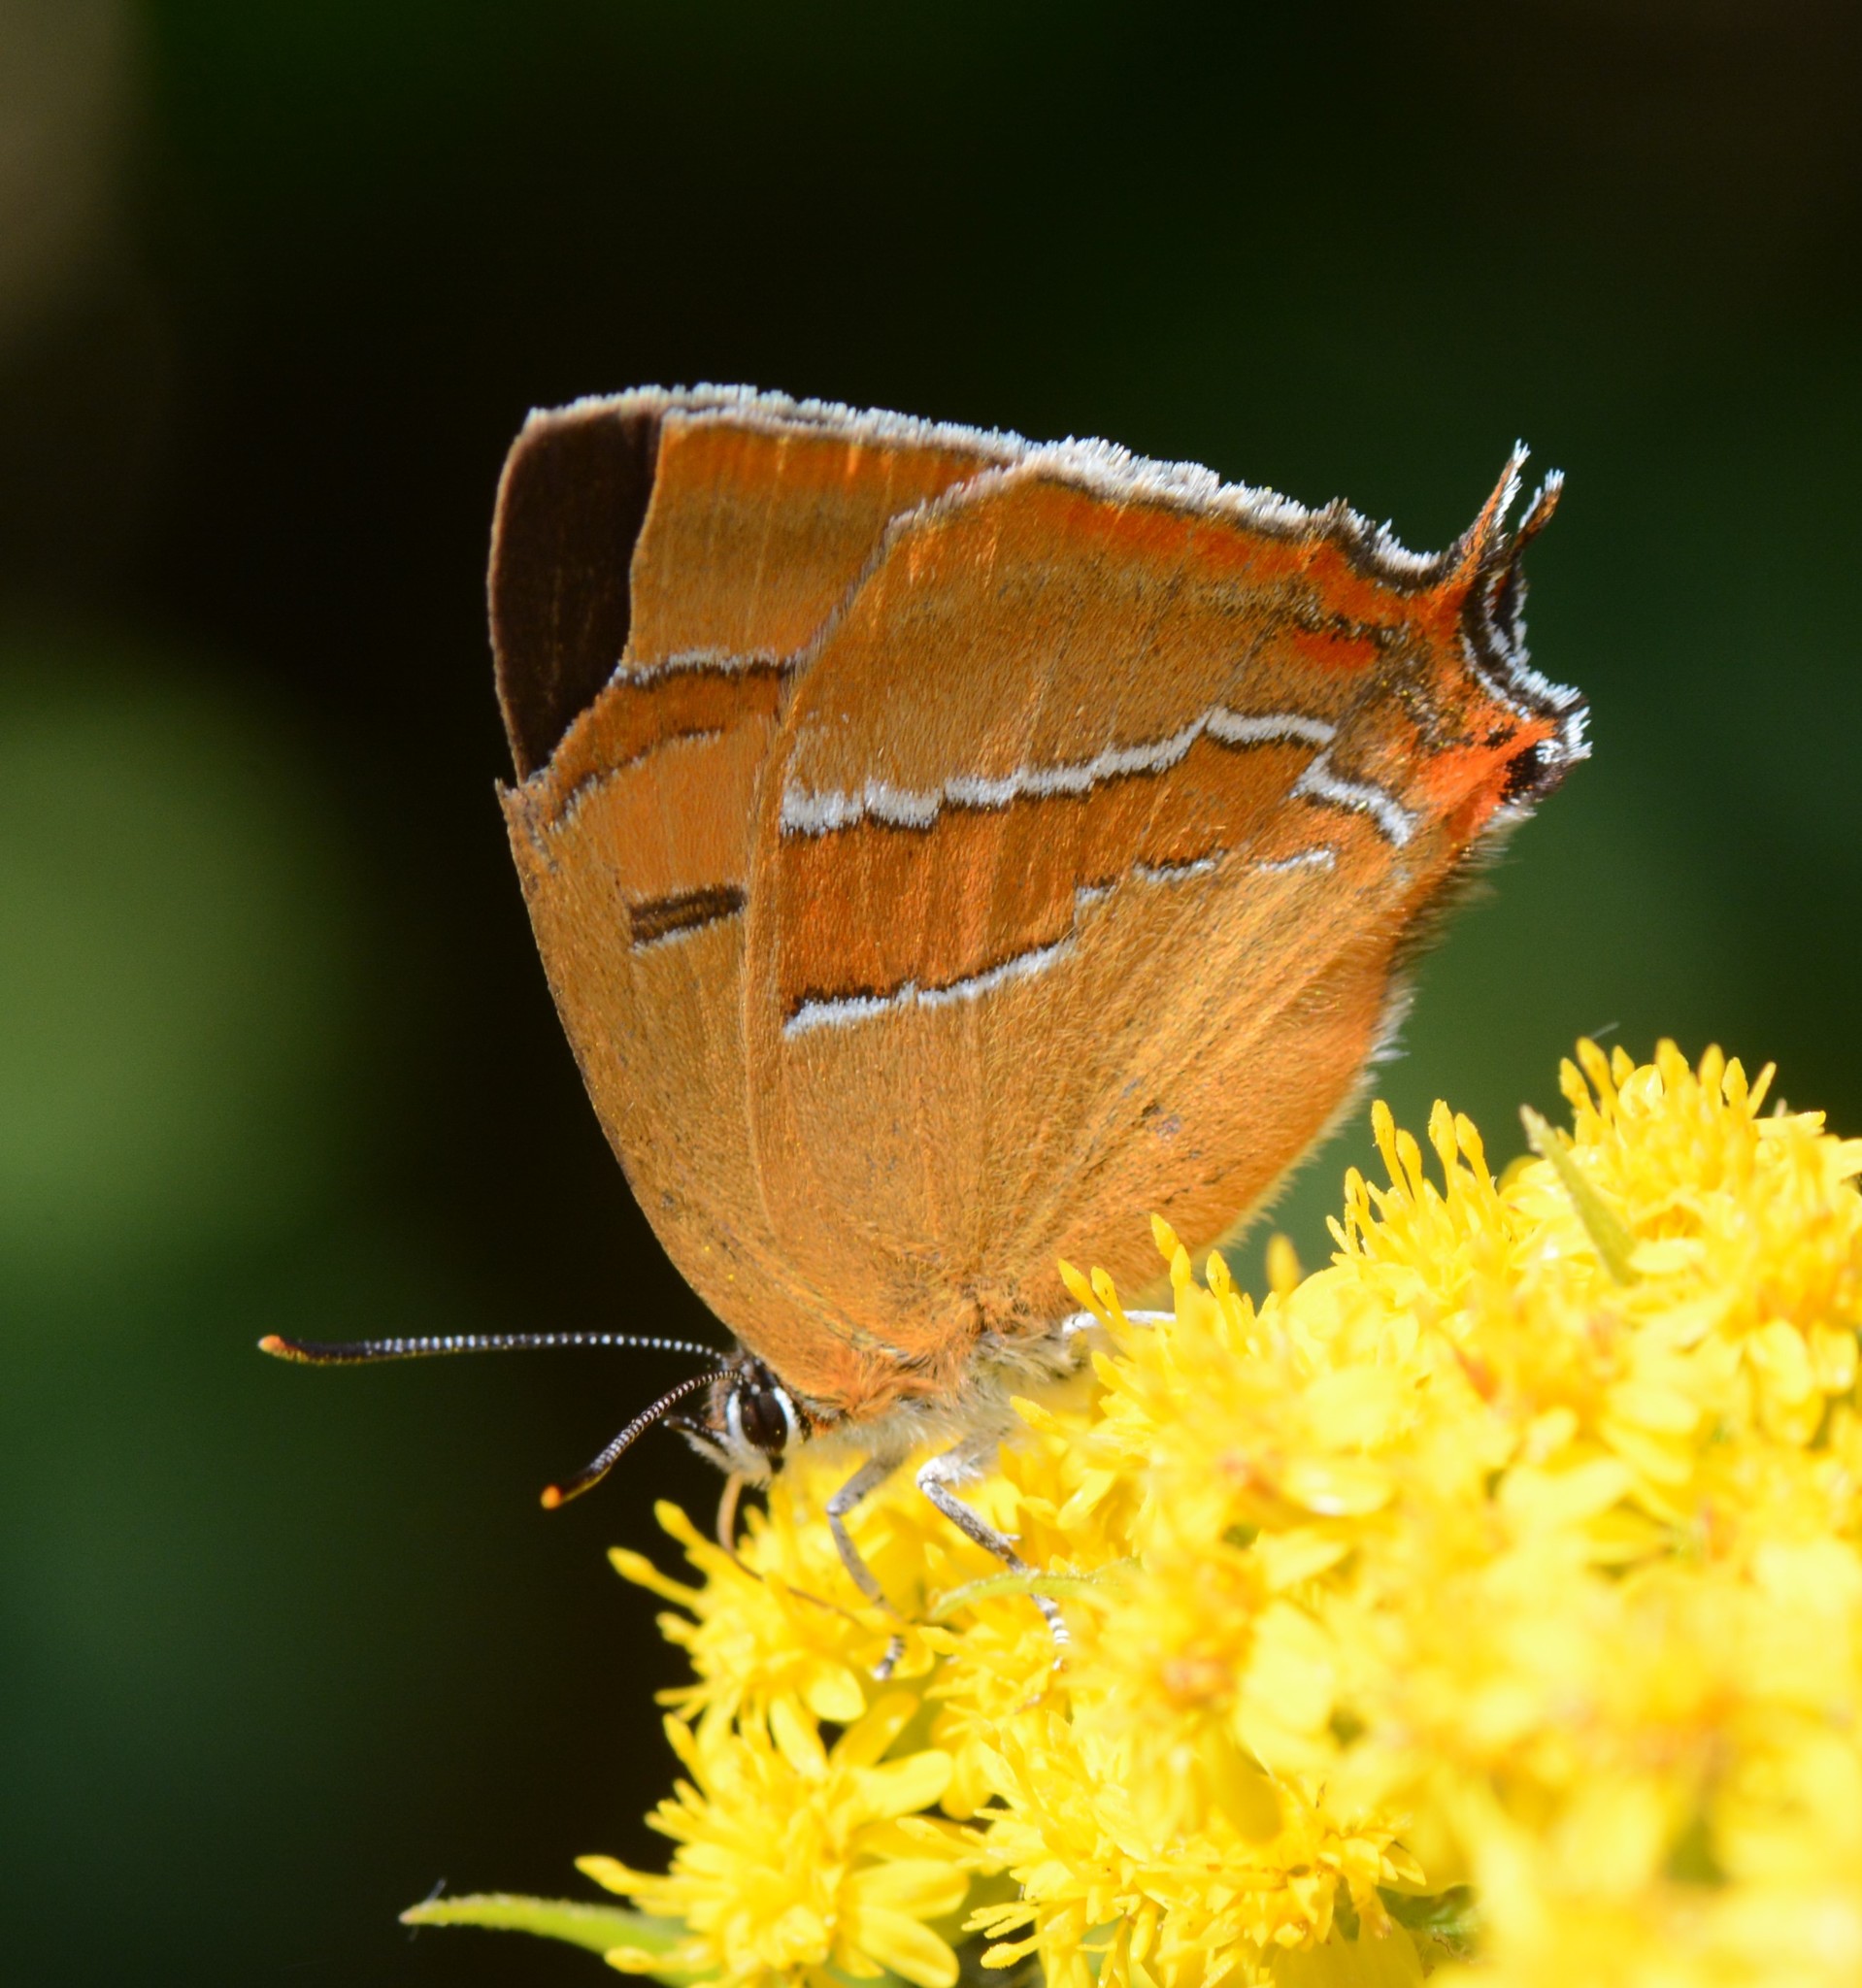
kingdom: Animalia
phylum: Arthropoda
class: Insecta
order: Lepidoptera
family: Lycaenidae
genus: Thecla
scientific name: Thecla betulae
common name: Brown hairstreak
